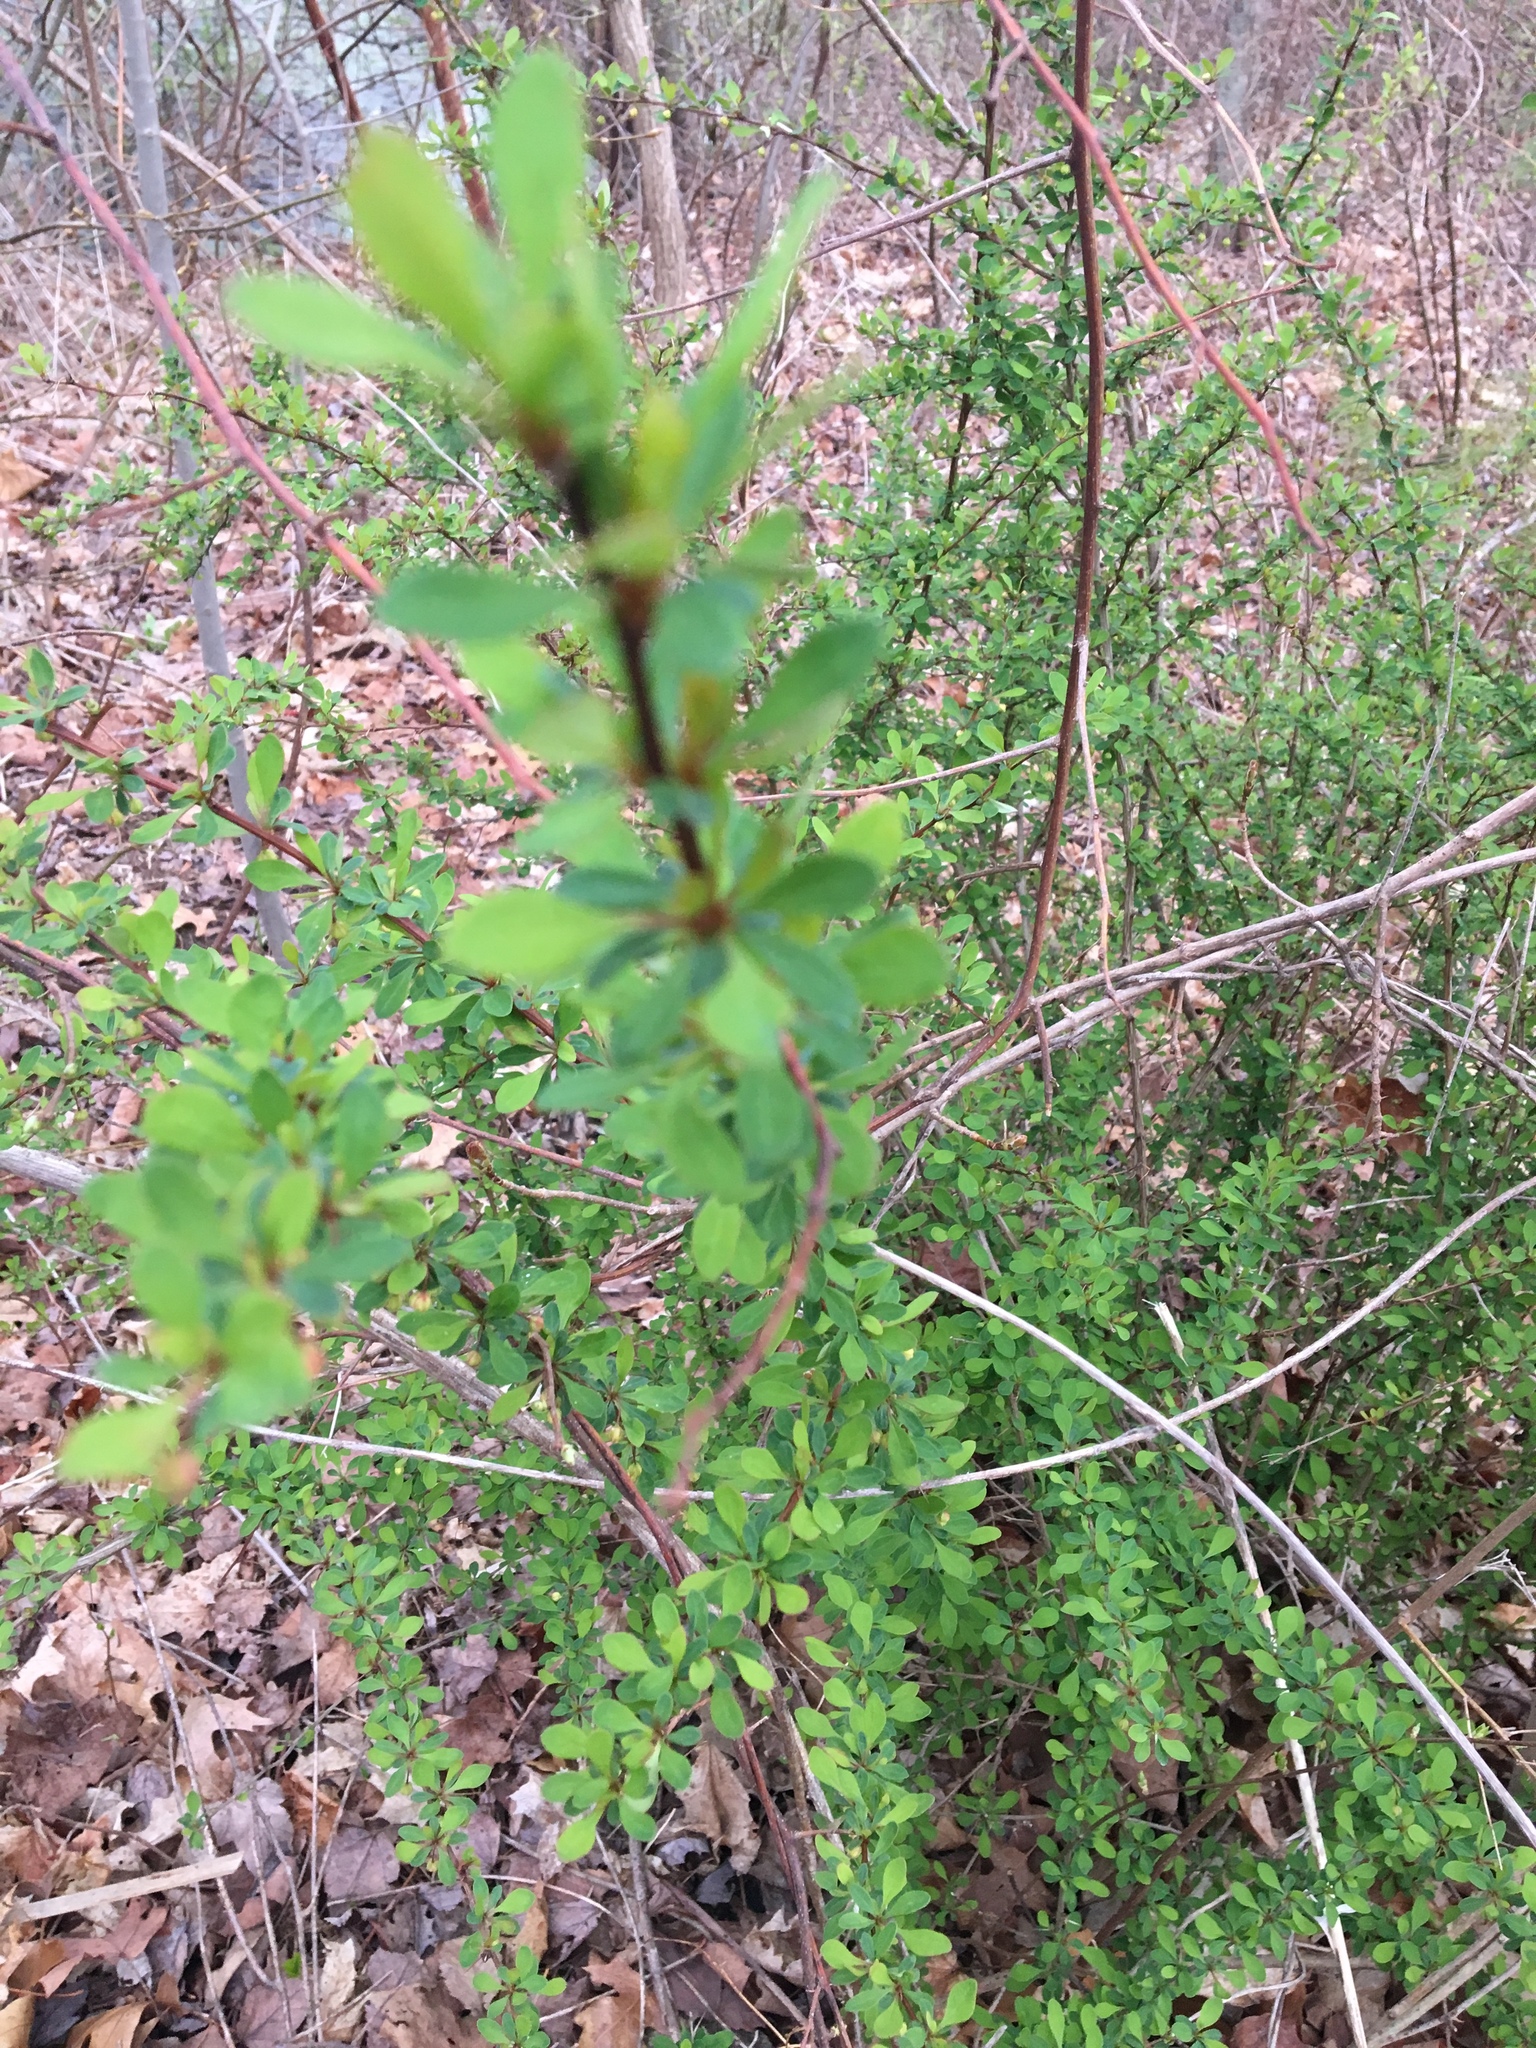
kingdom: Plantae
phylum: Tracheophyta
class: Magnoliopsida
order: Ranunculales
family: Berberidaceae
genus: Berberis
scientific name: Berberis thunbergii
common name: Japanese barberry
